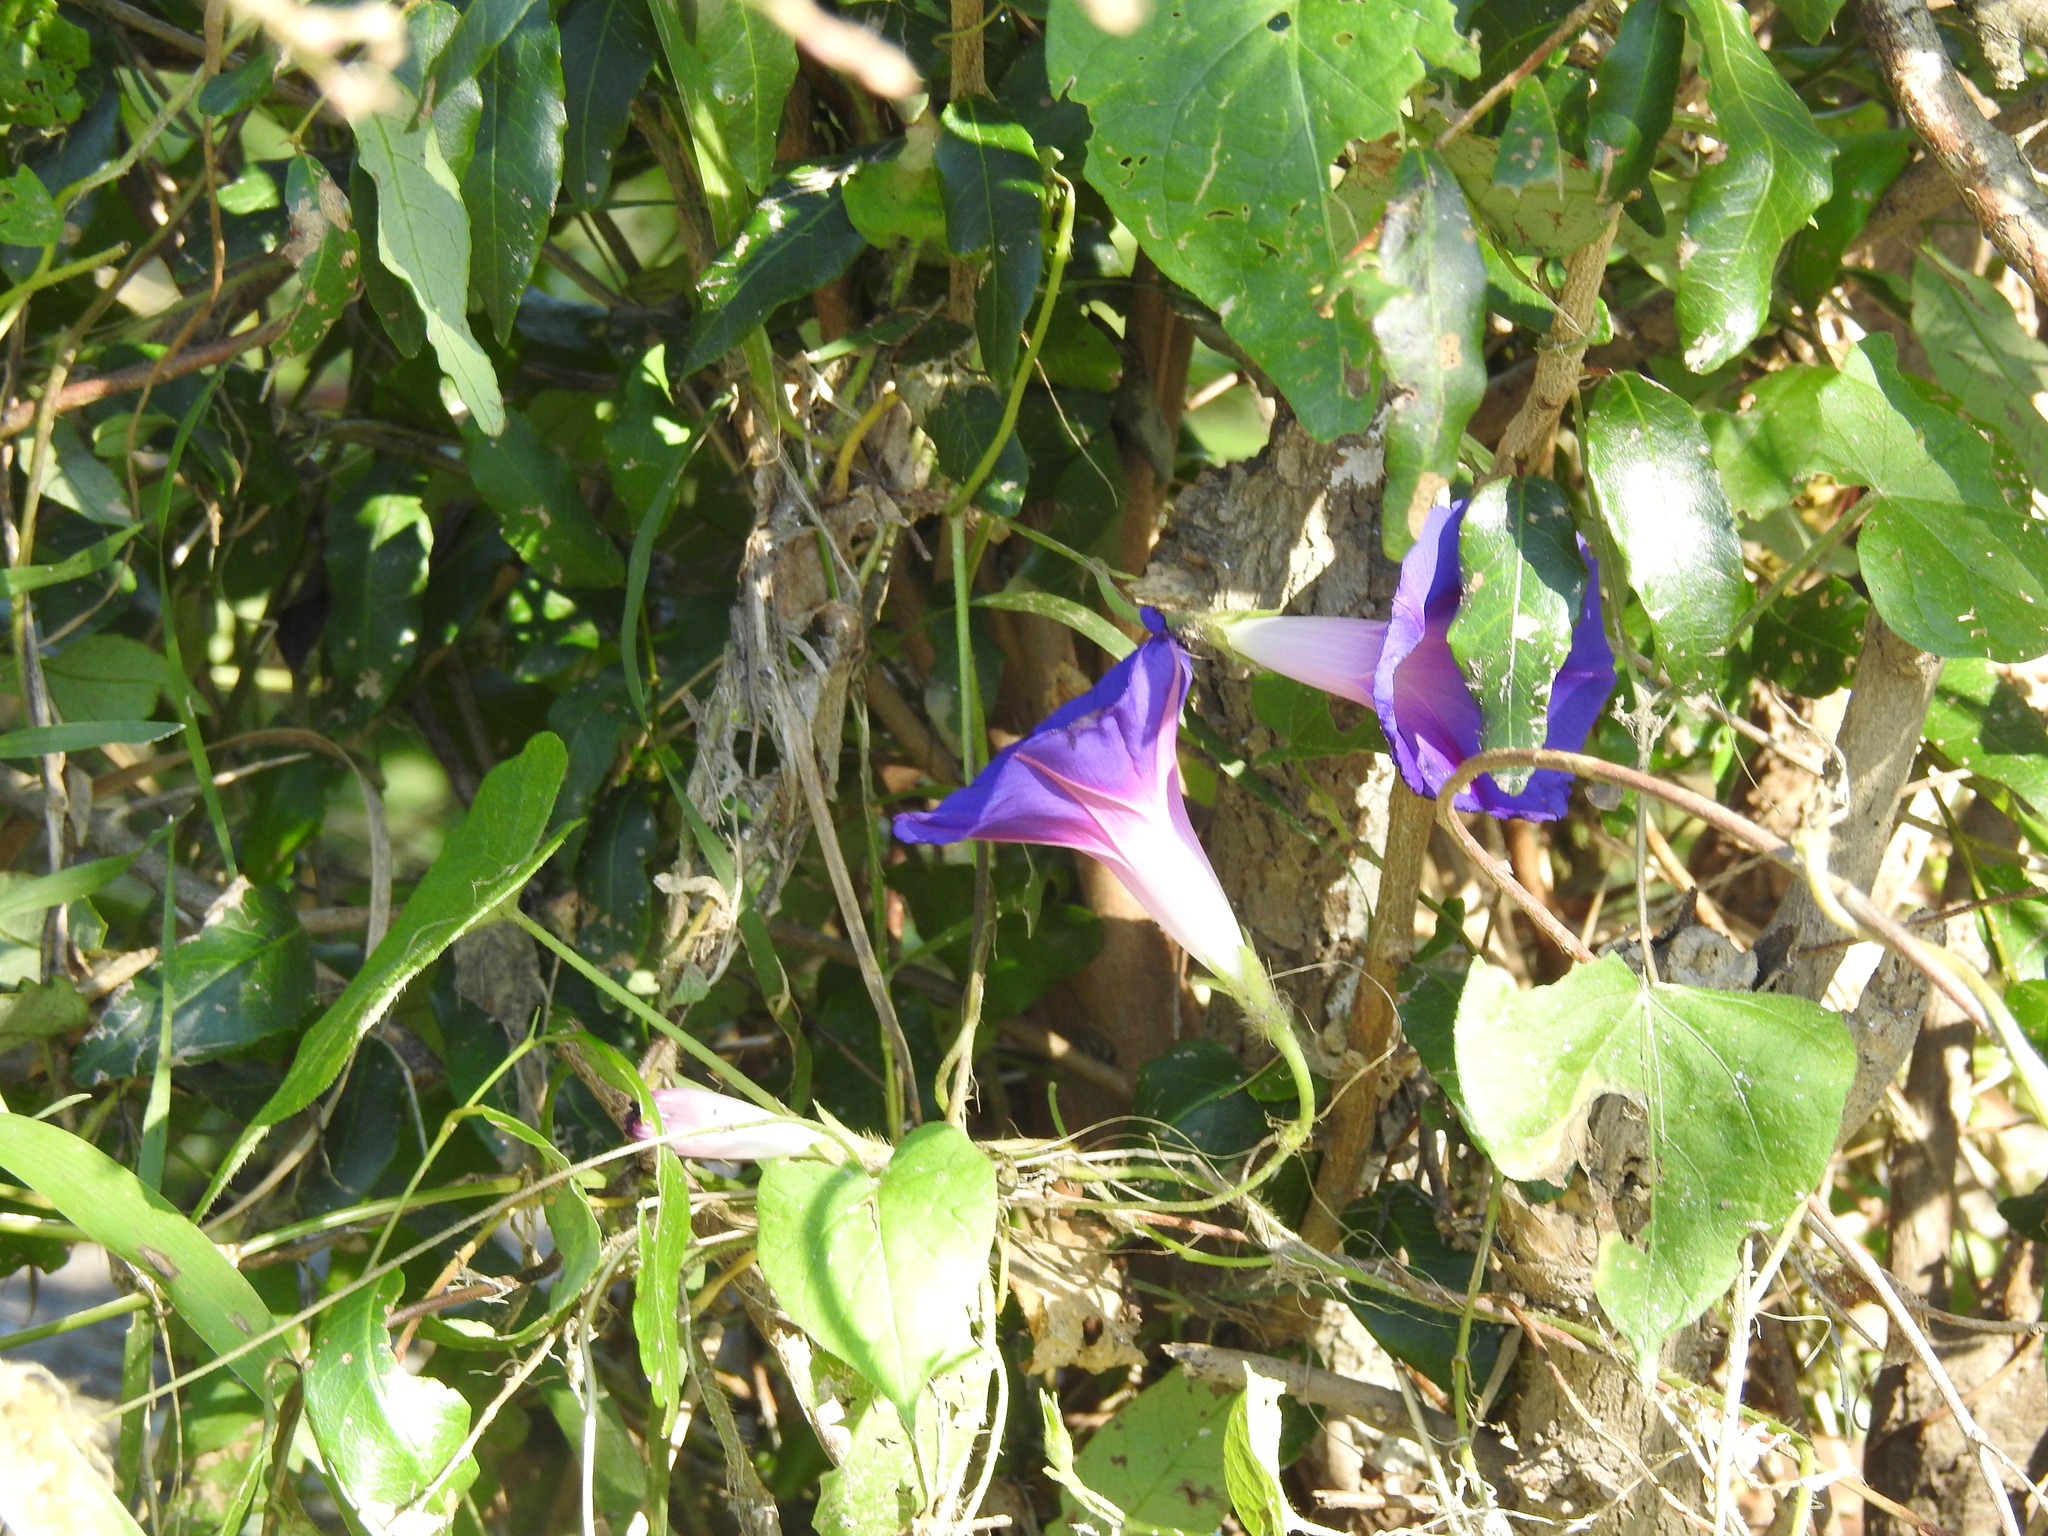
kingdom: Plantae
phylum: Tracheophyta
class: Magnoliopsida
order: Solanales
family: Convolvulaceae
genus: Ipomoea
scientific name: Ipomoea purpurea
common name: Common morning-glory
